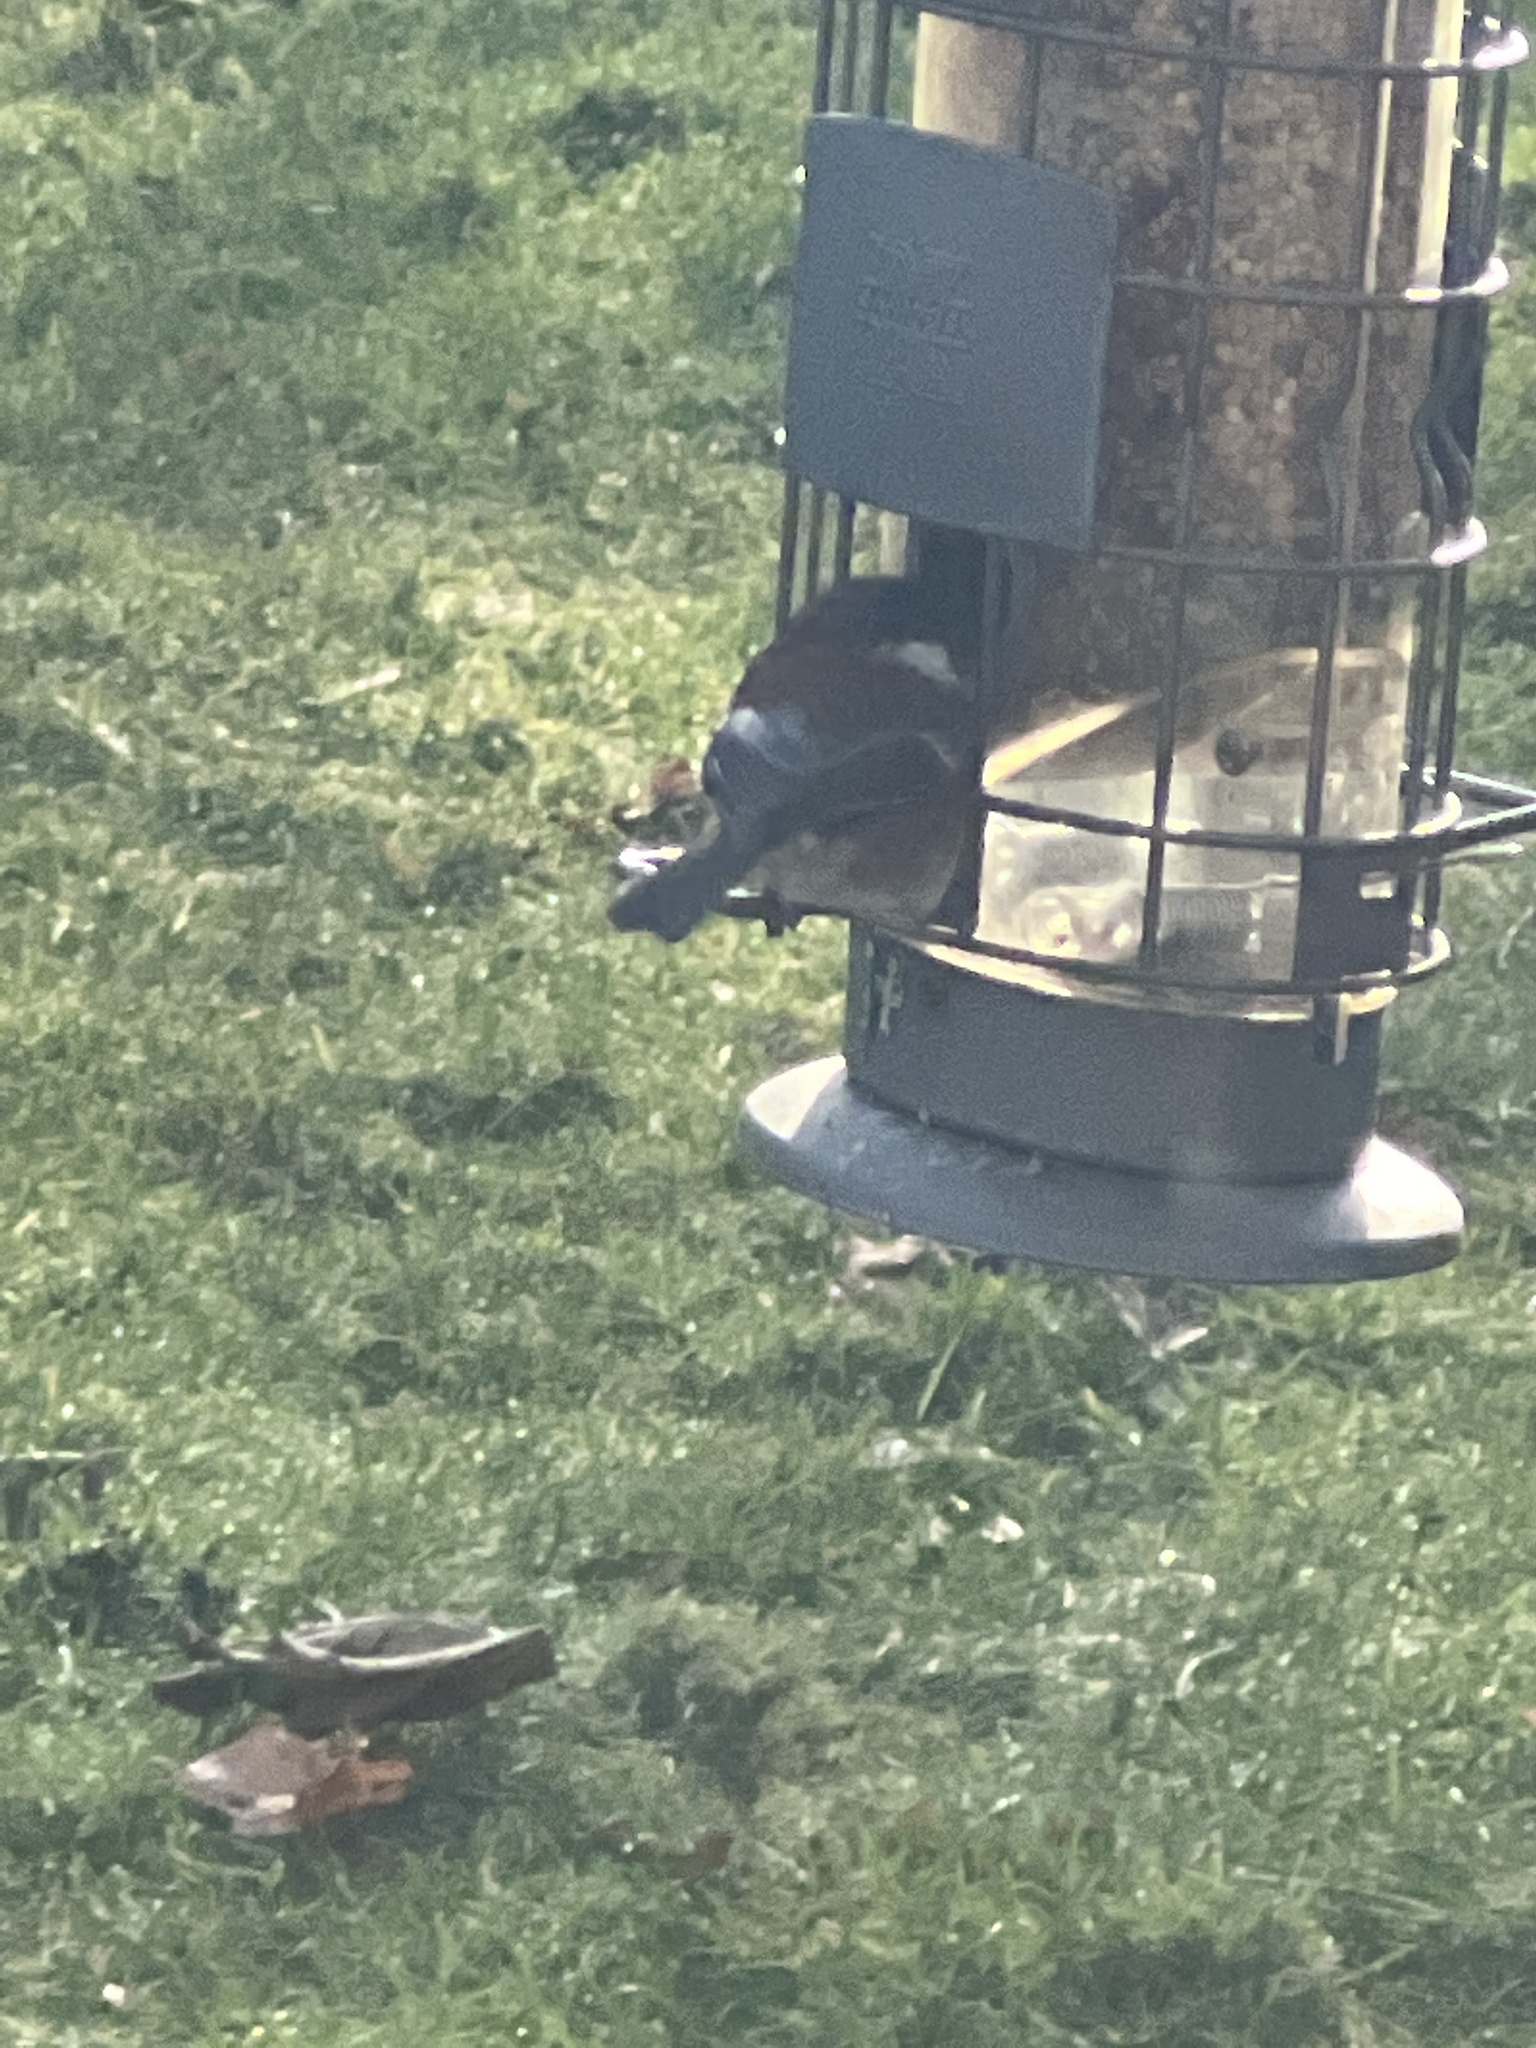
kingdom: Animalia
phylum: Chordata
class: Aves
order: Passeriformes
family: Paridae
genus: Poecile
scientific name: Poecile rufescens
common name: Chestnut-backed chickadee
